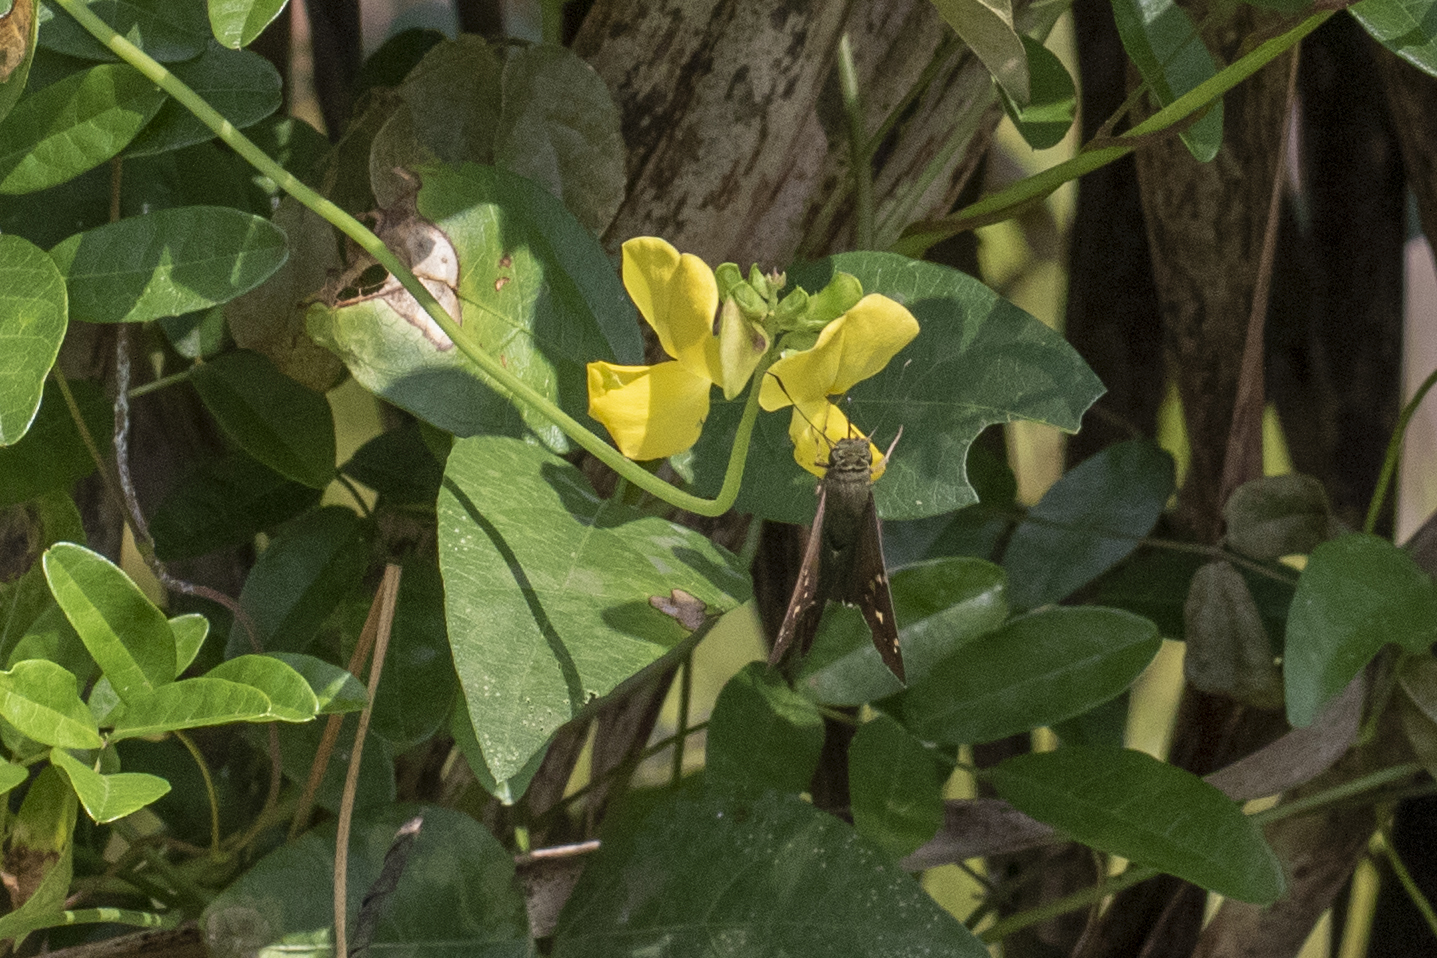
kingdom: Animalia
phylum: Arthropoda
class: Insecta
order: Lepidoptera
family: Hesperiidae
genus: Urbanus
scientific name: Urbanus proteus
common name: Long-tailed skipper
